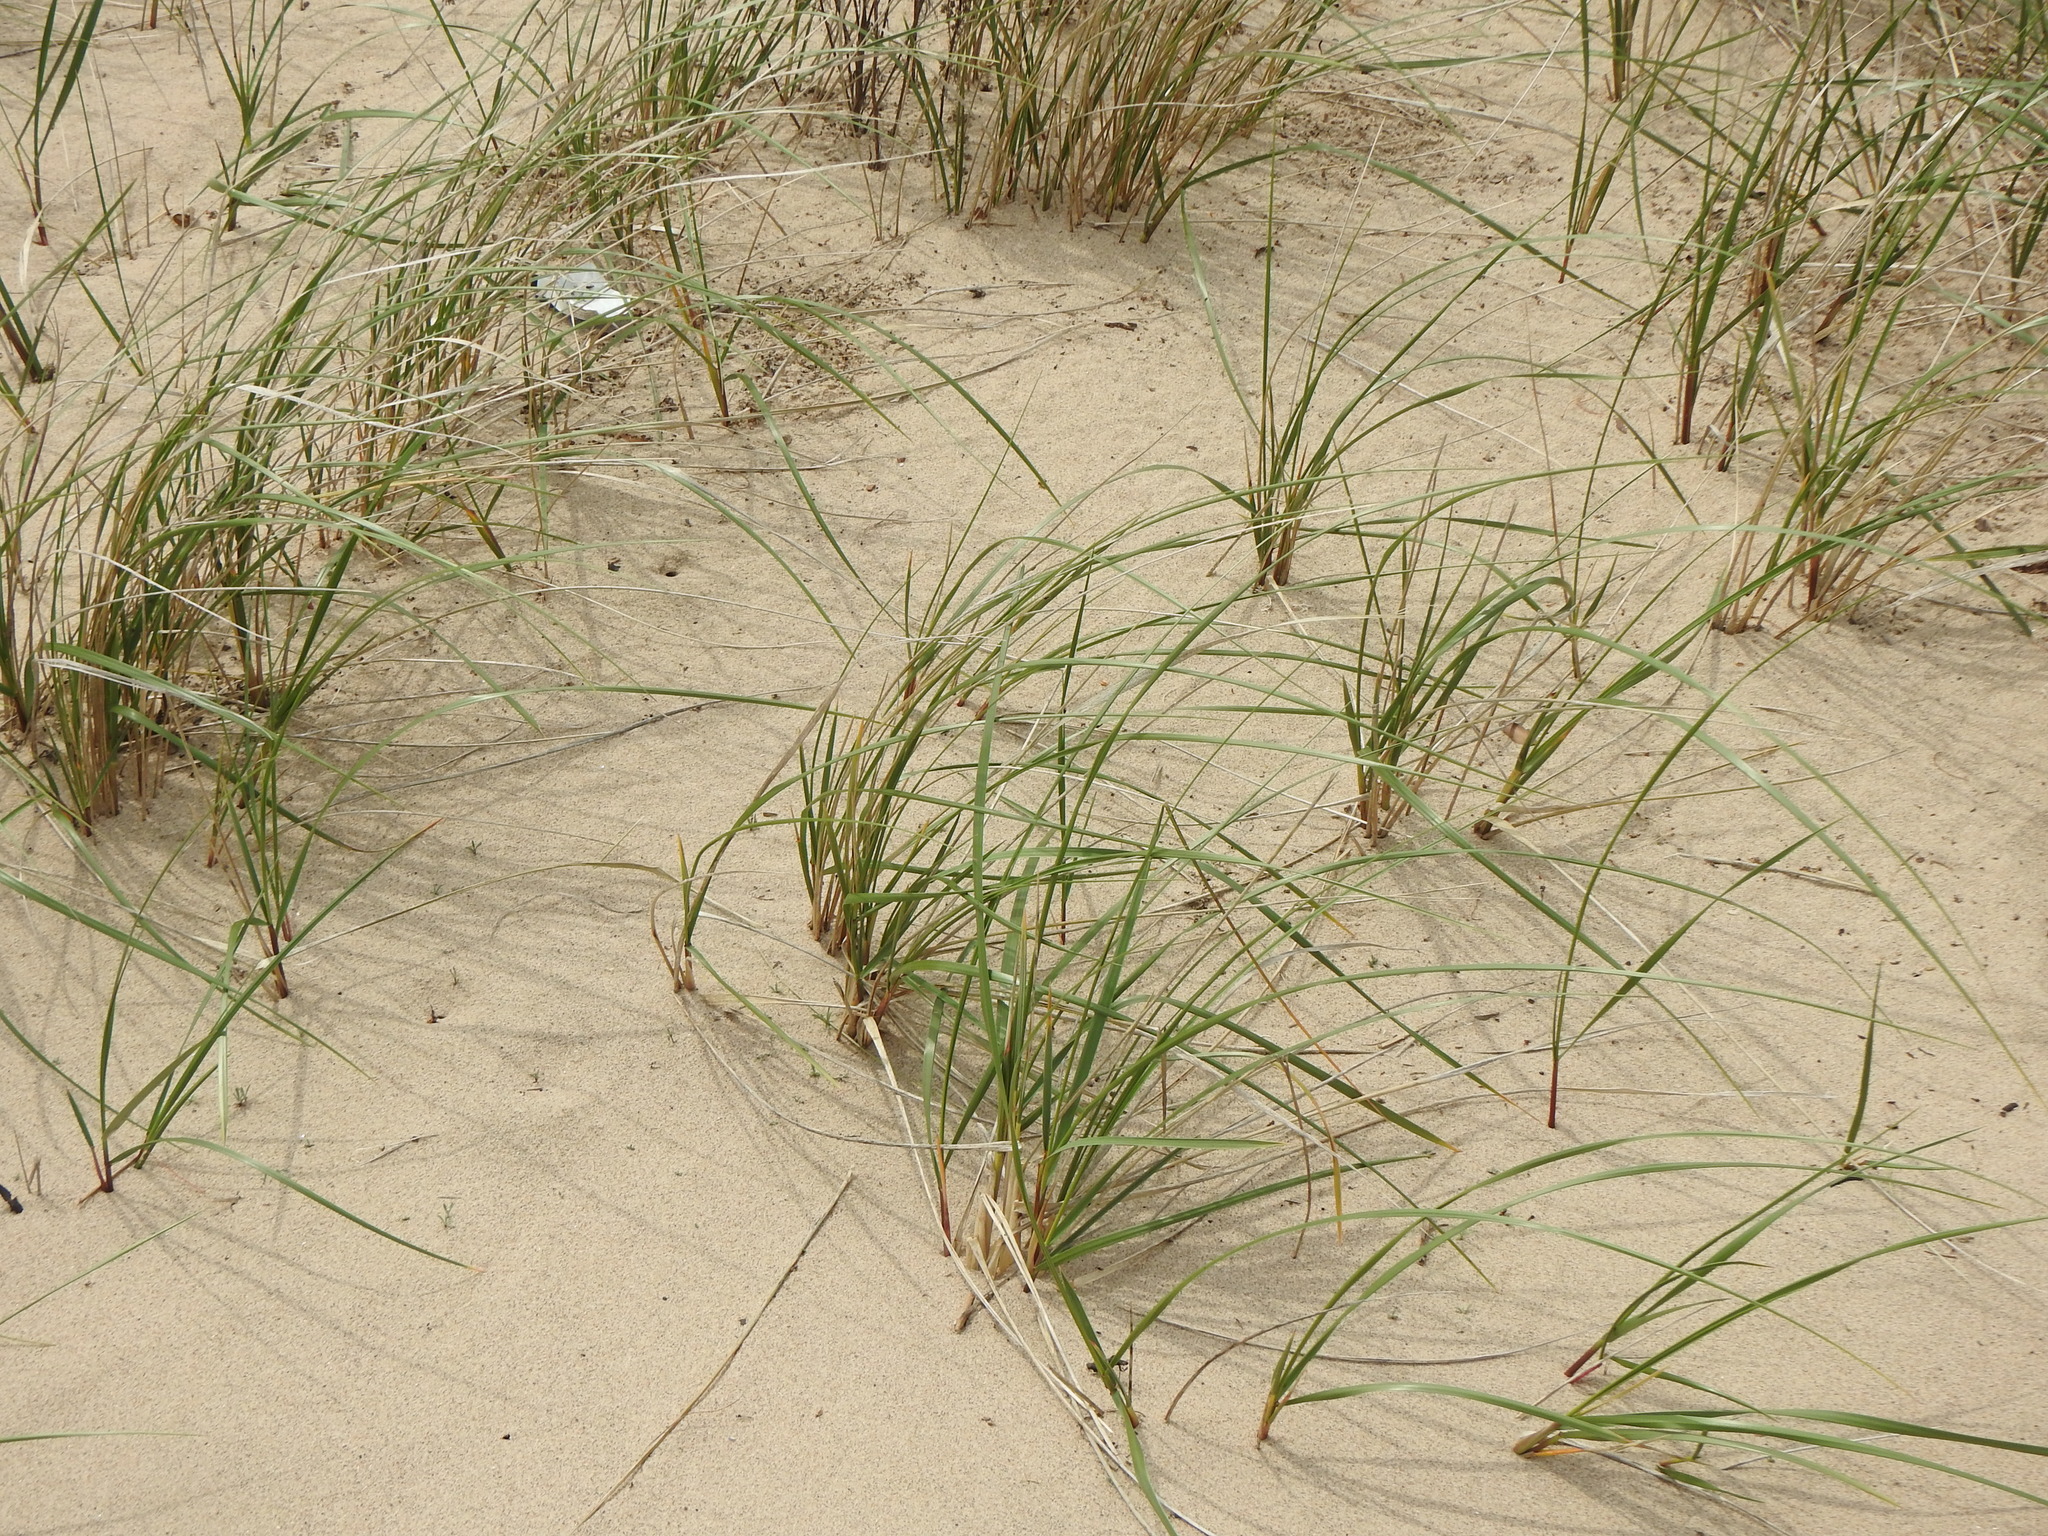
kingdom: Plantae
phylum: Tracheophyta
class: Liliopsida
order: Poales
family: Poaceae
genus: Calamagrostis
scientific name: Calamagrostis breviligulata
